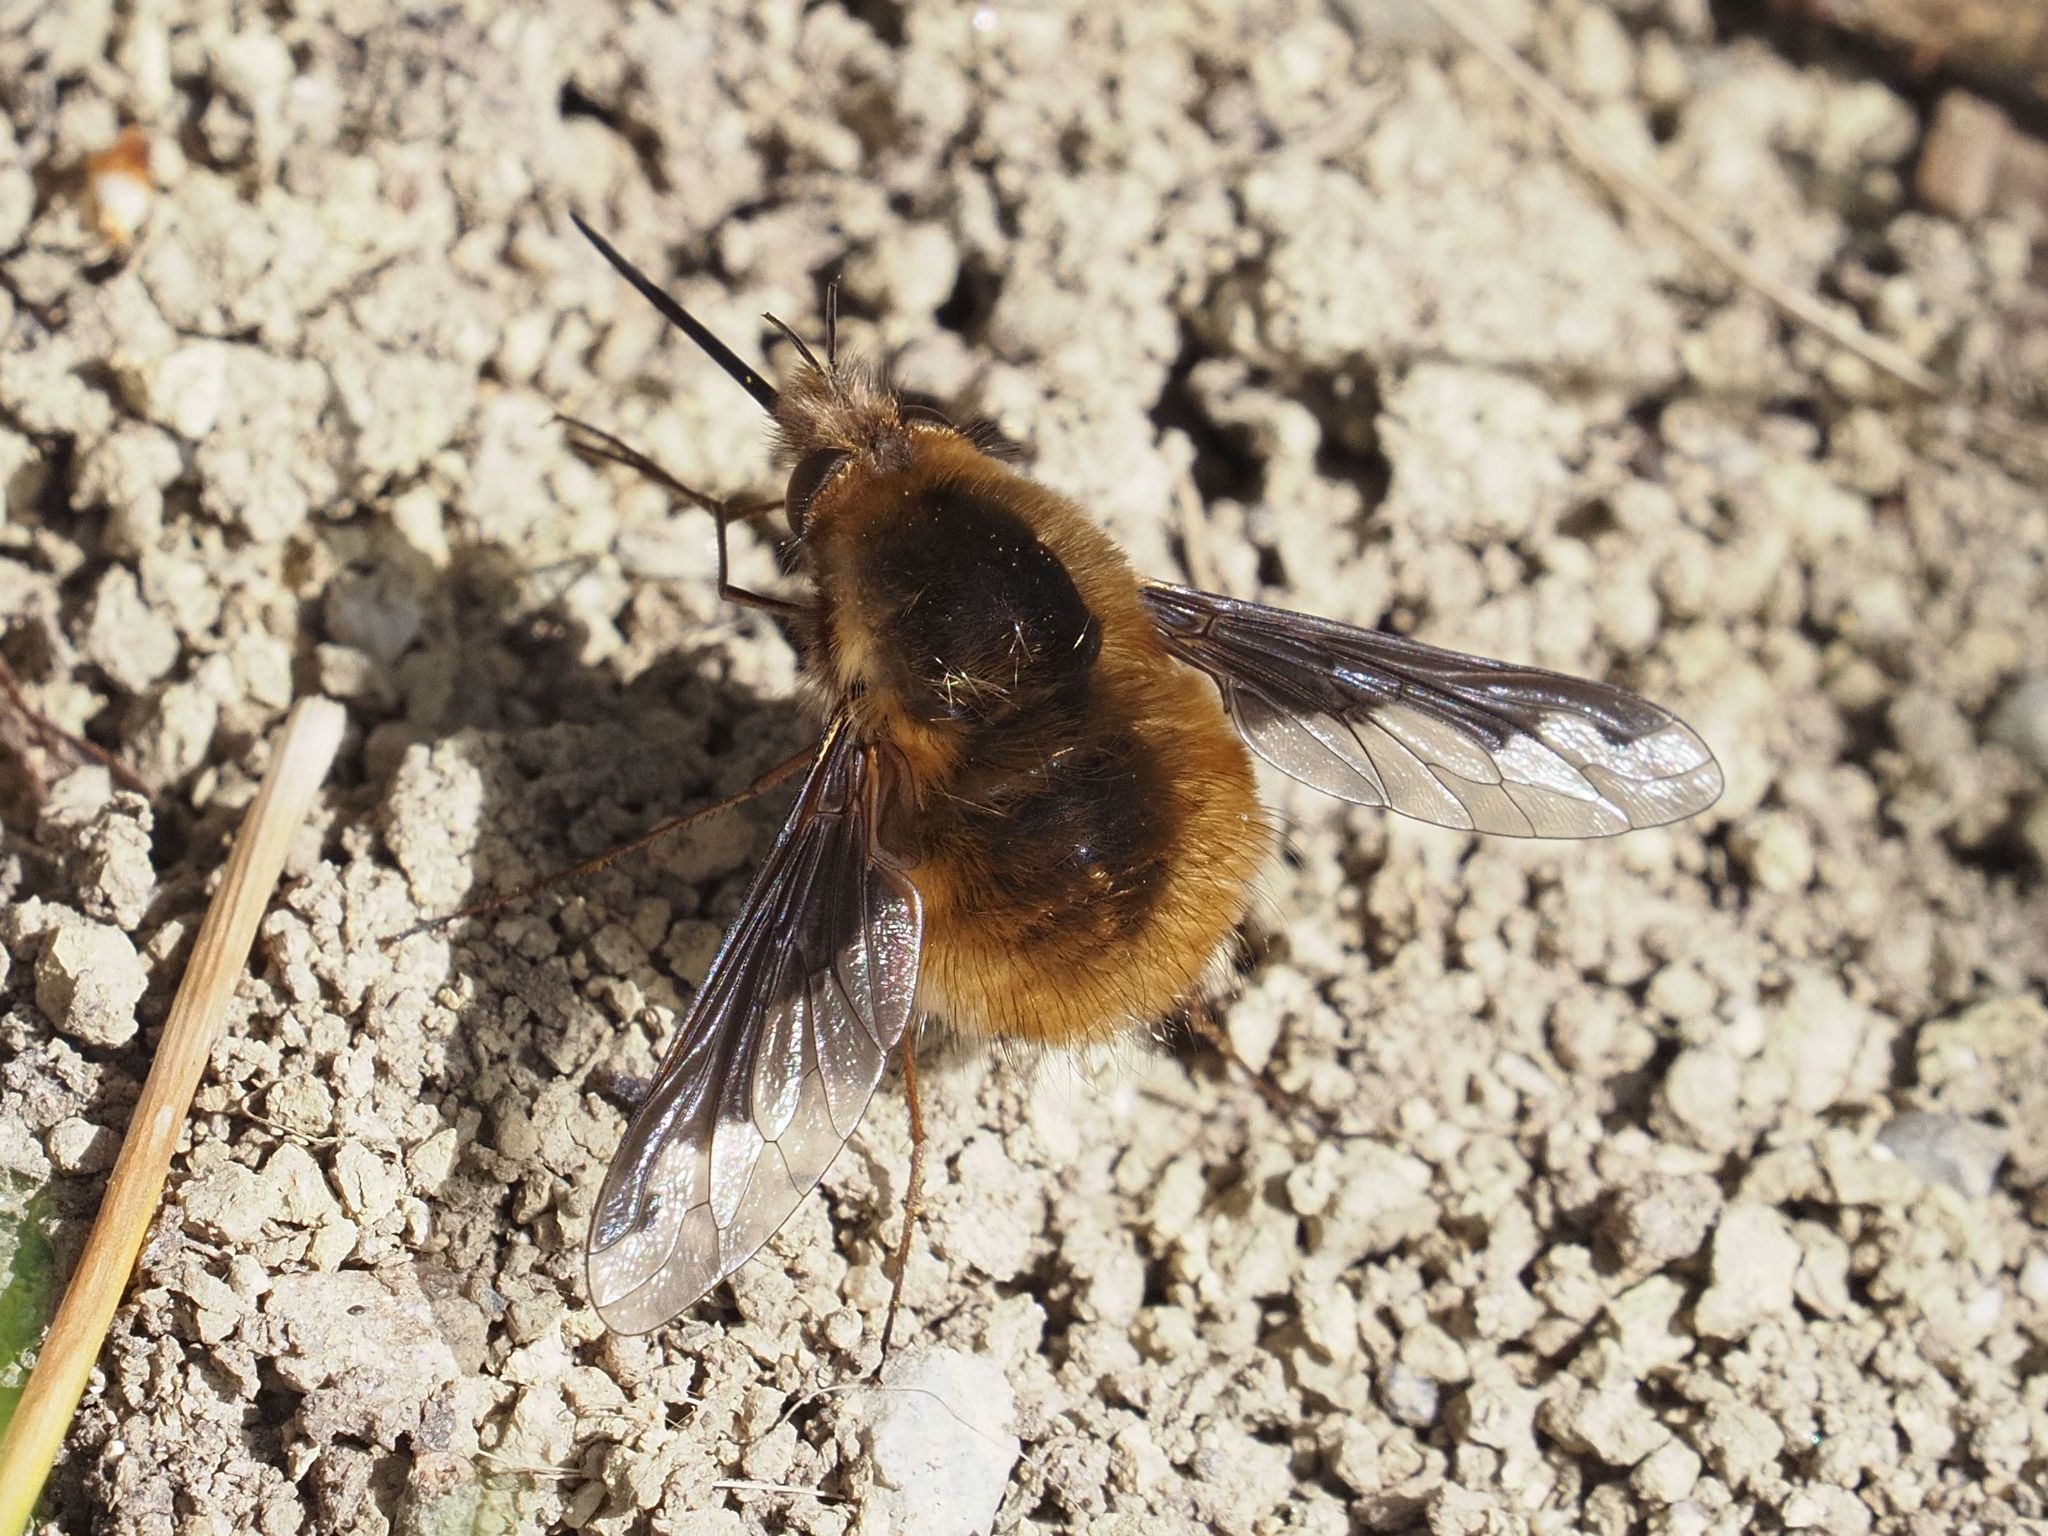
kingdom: Animalia
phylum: Arthropoda
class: Insecta
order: Diptera
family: Bombyliidae
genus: Bombylius
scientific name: Bombylius major
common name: Bee fly
